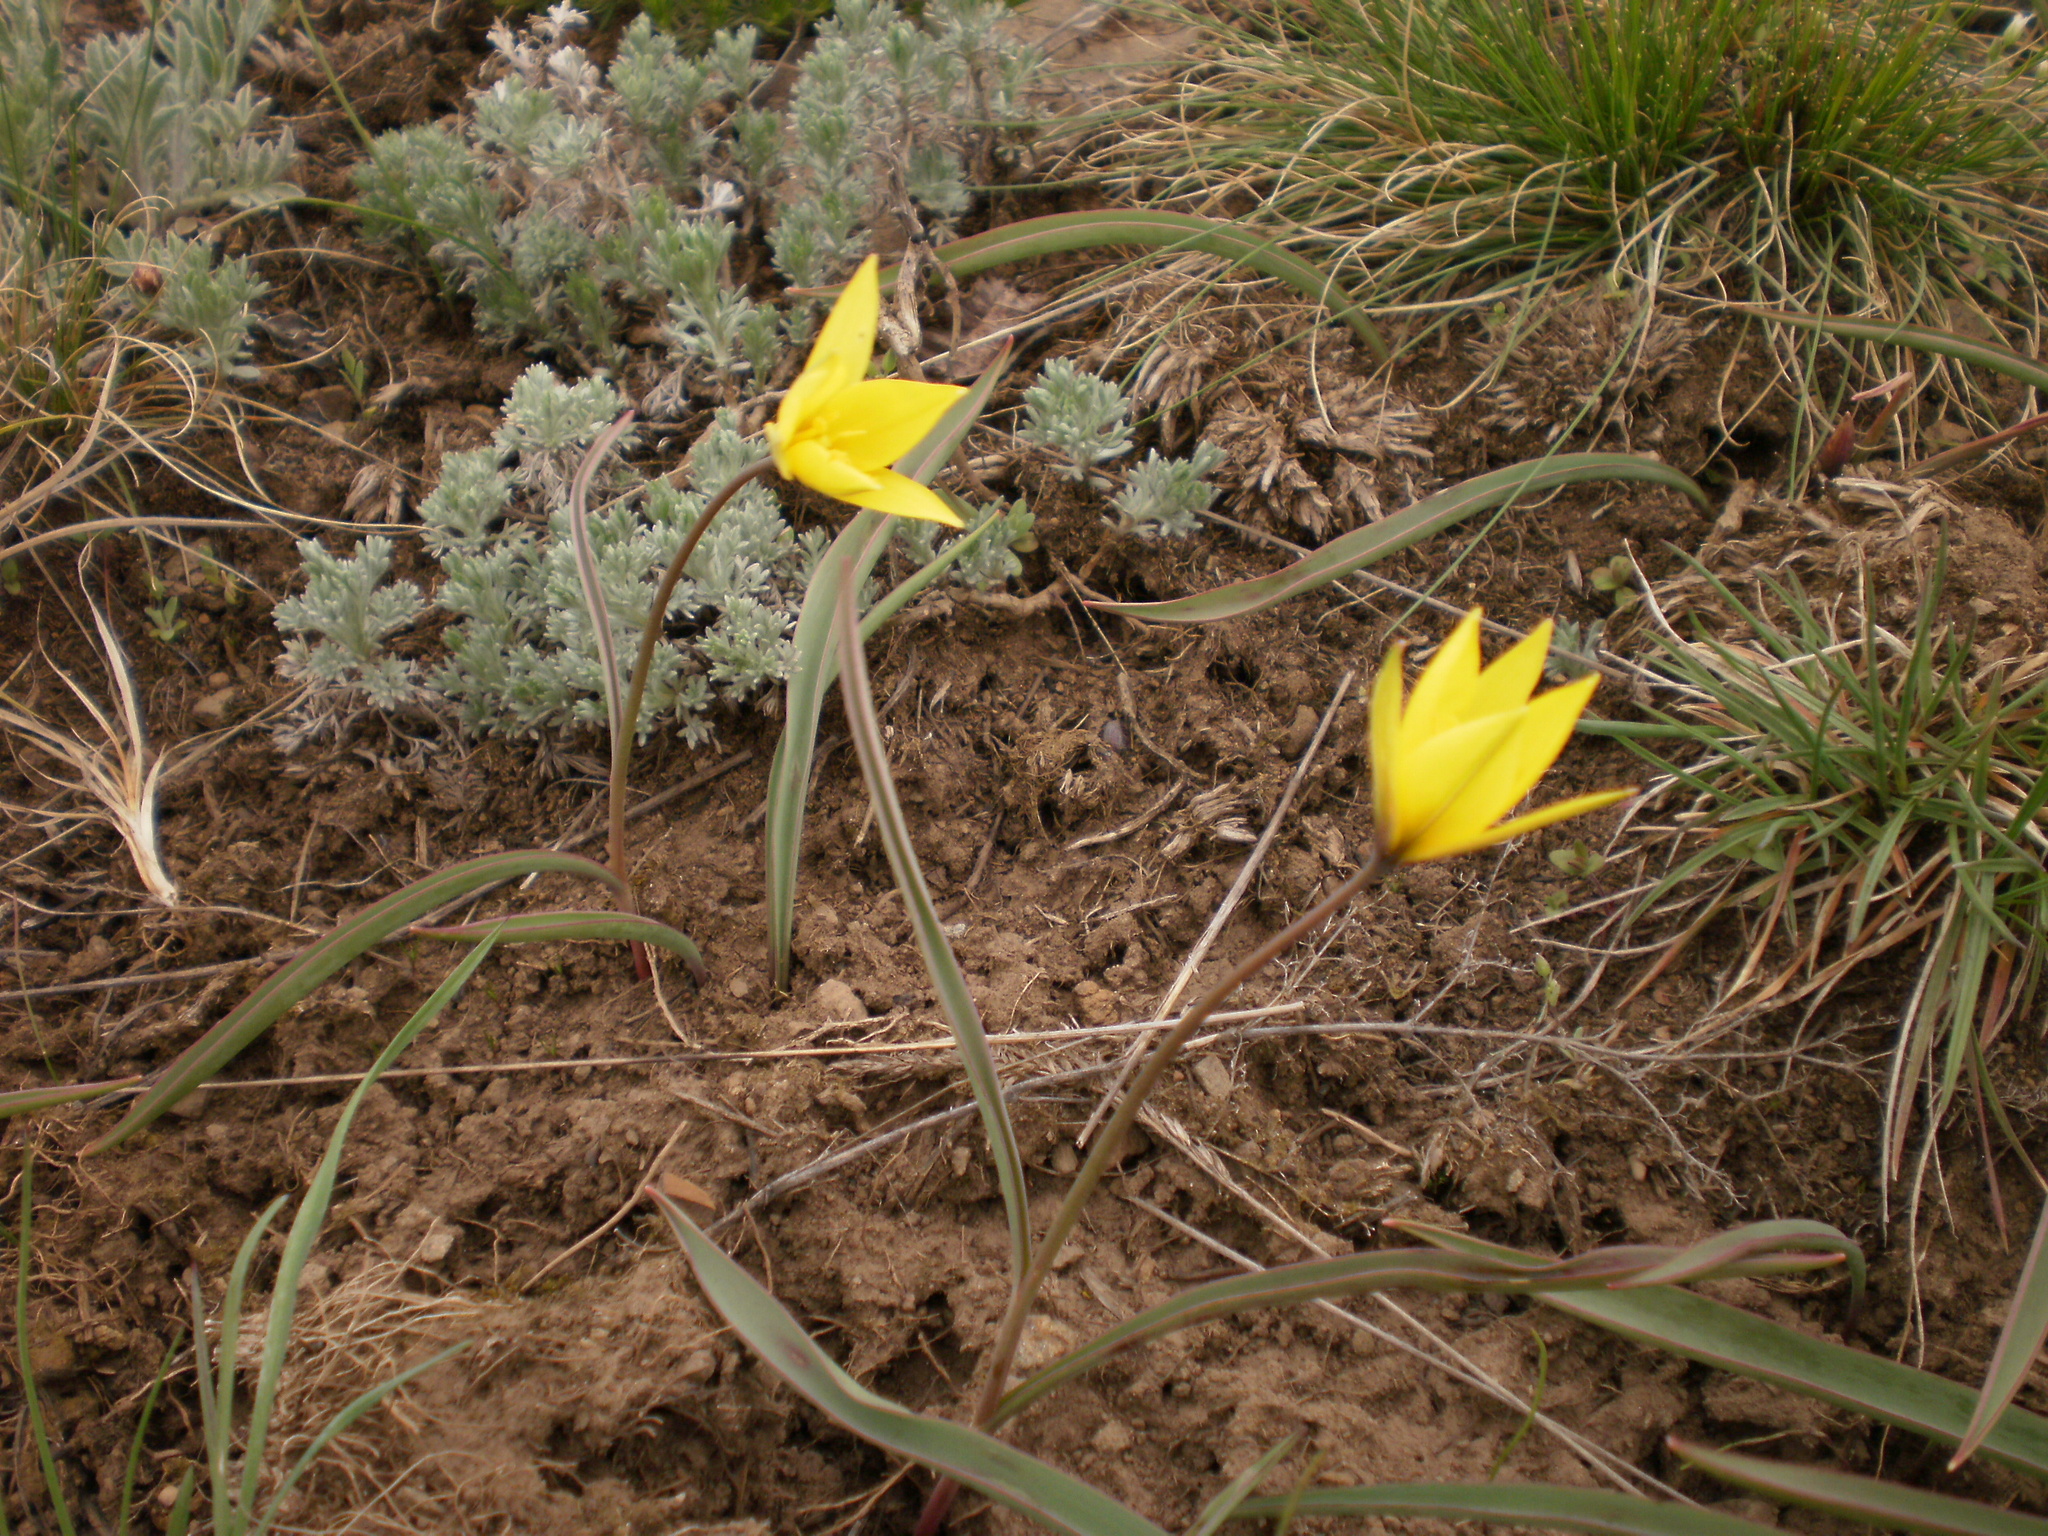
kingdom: Plantae
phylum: Tracheophyta
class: Liliopsida
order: Liliales
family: Liliaceae
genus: Tulipa
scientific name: Tulipa sylvestris
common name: Wild tulip
